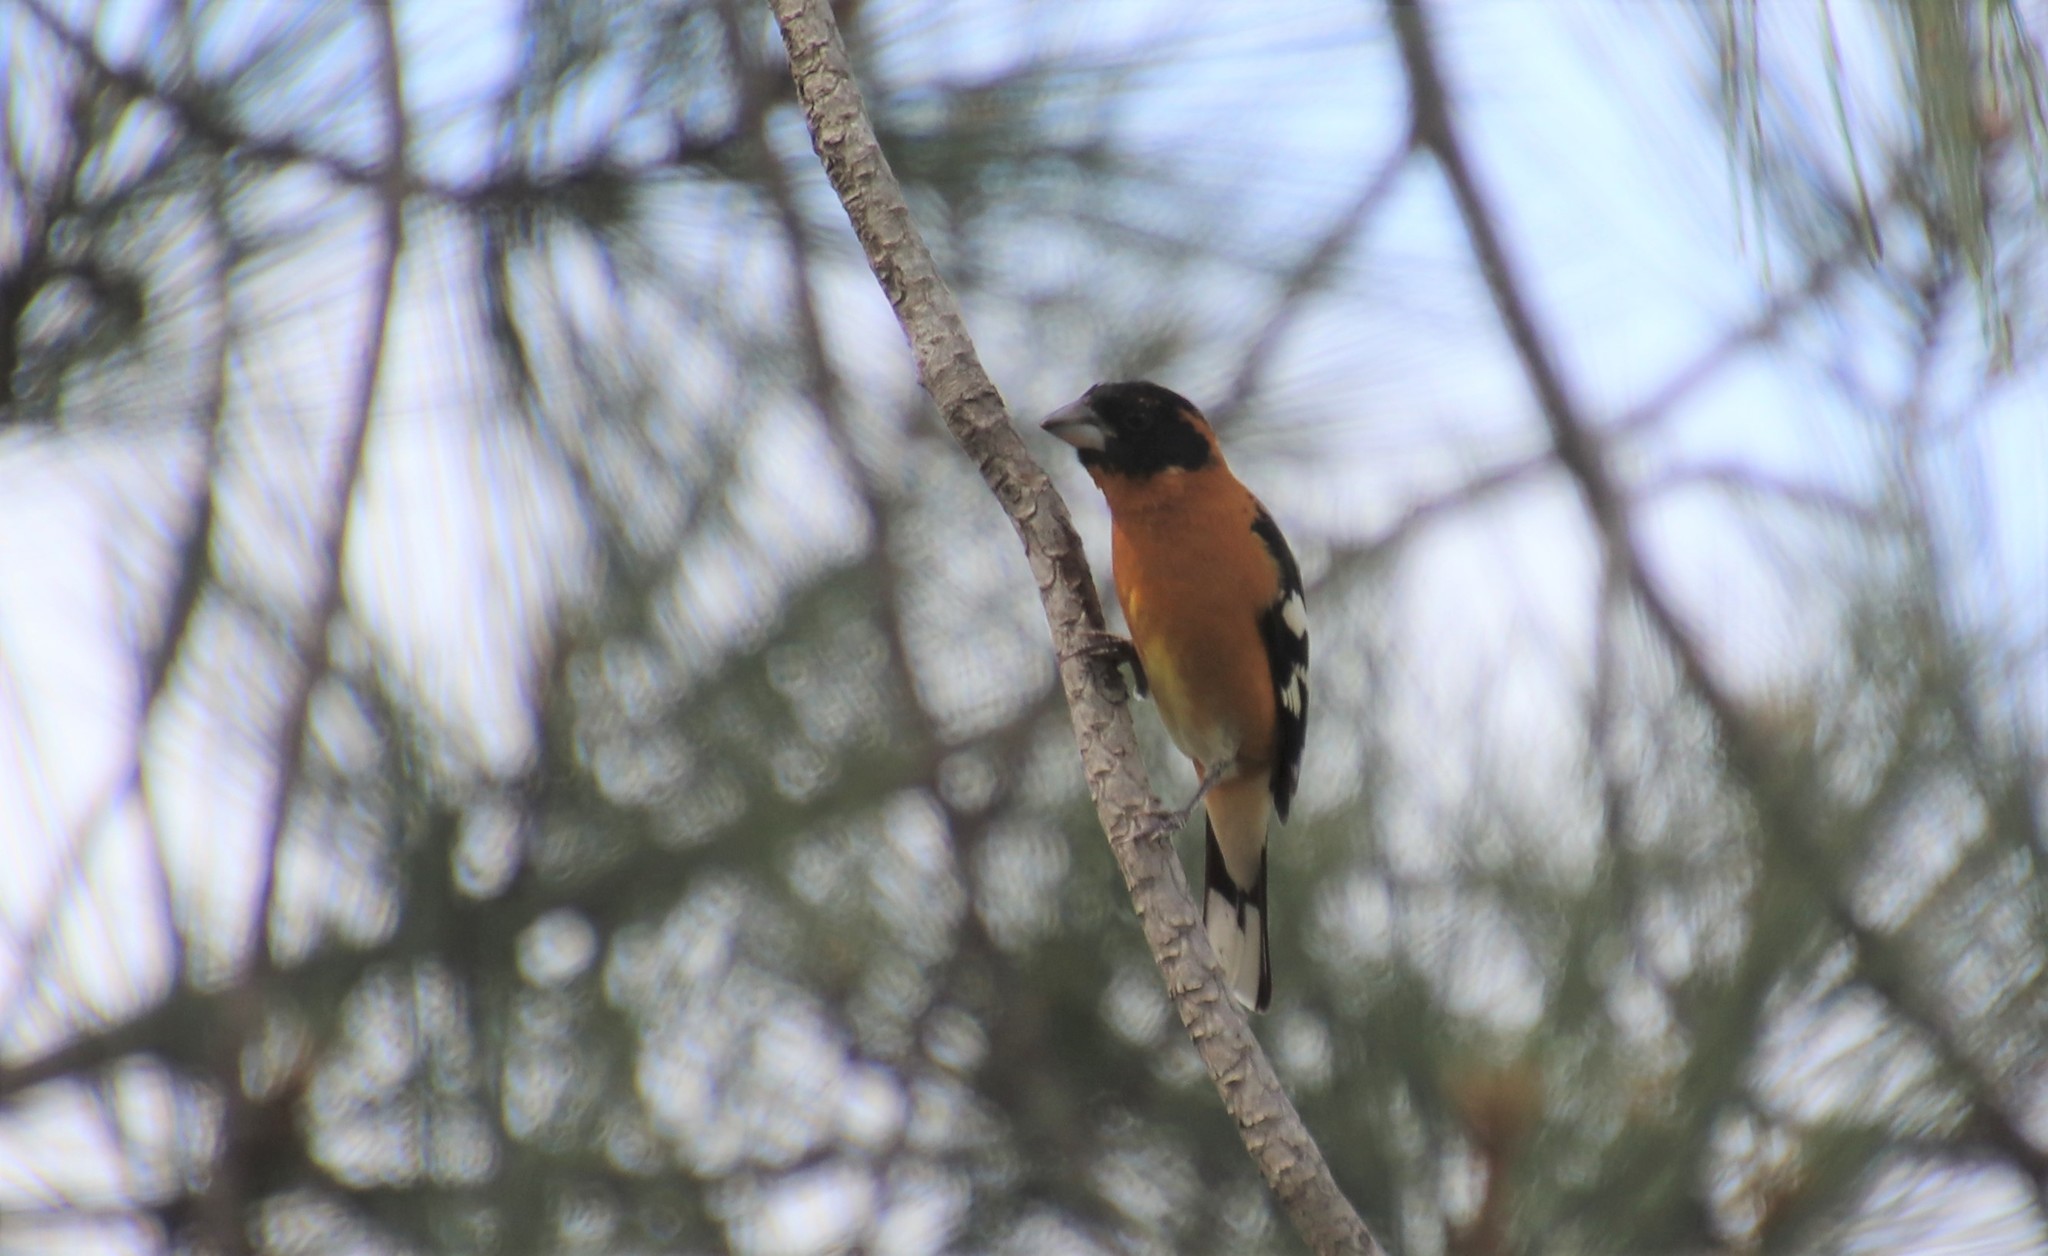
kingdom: Animalia
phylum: Chordata
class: Aves
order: Passeriformes
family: Cardinalidae
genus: Pheucticus
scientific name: Pheucticus melanocephalus
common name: Black-headed grosbeak
